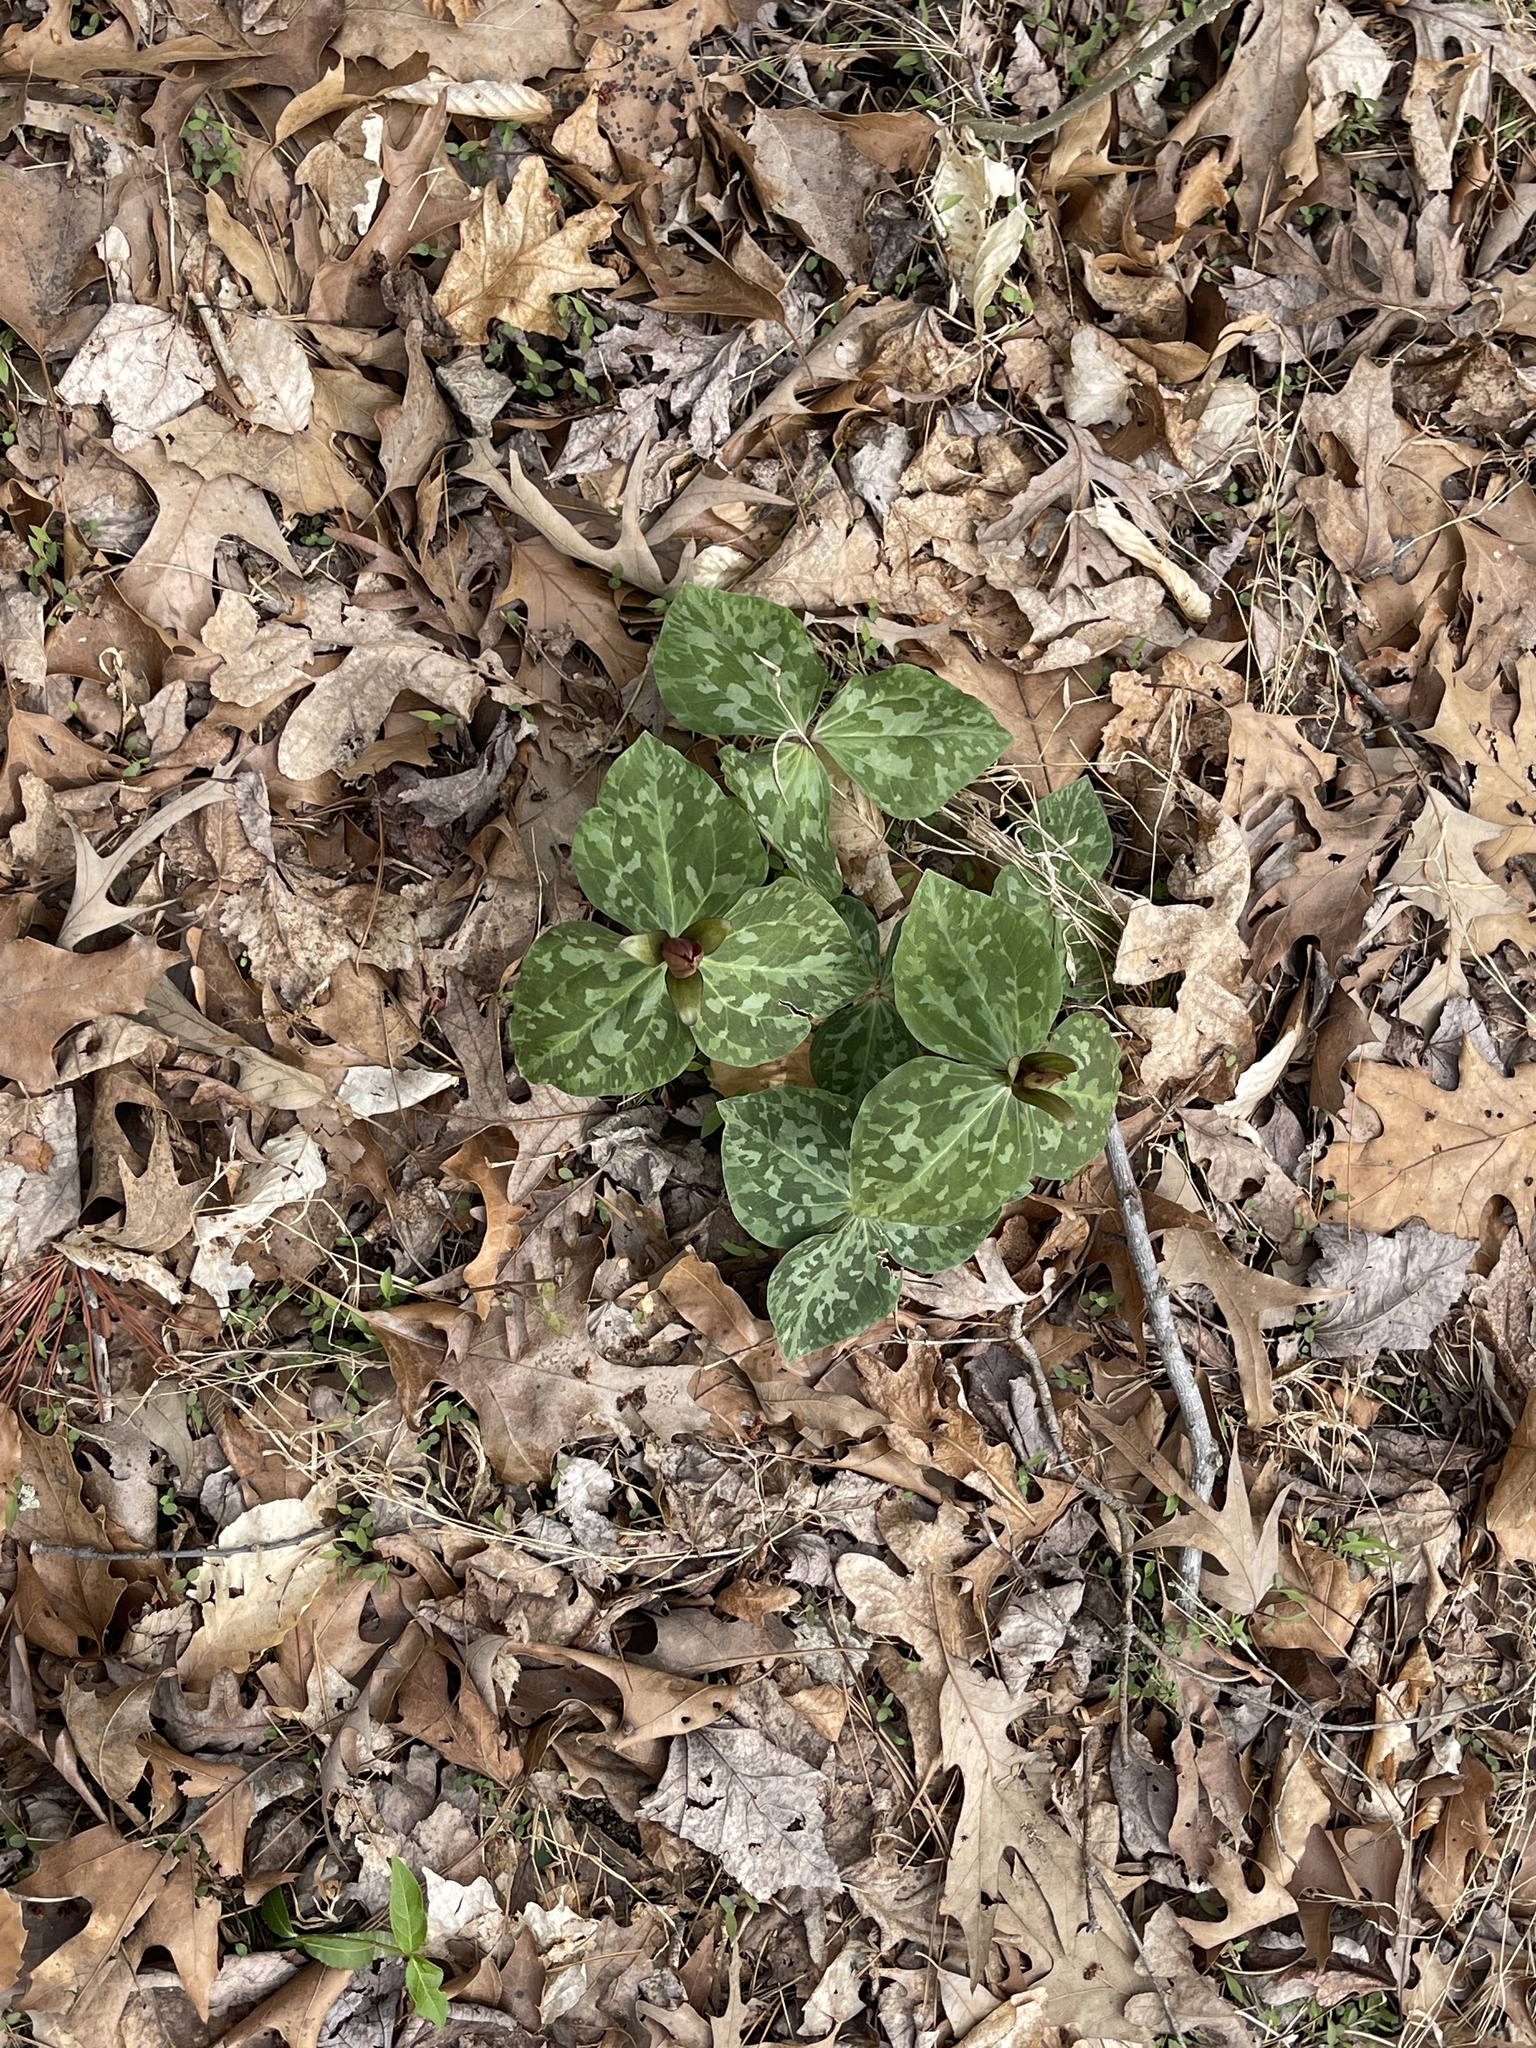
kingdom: Plantae
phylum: Tracheophyta
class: Liliopsida
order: Liliales
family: Melanthiaceae
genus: Trillium
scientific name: Trillium cuneatum
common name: Cuneate trillium
